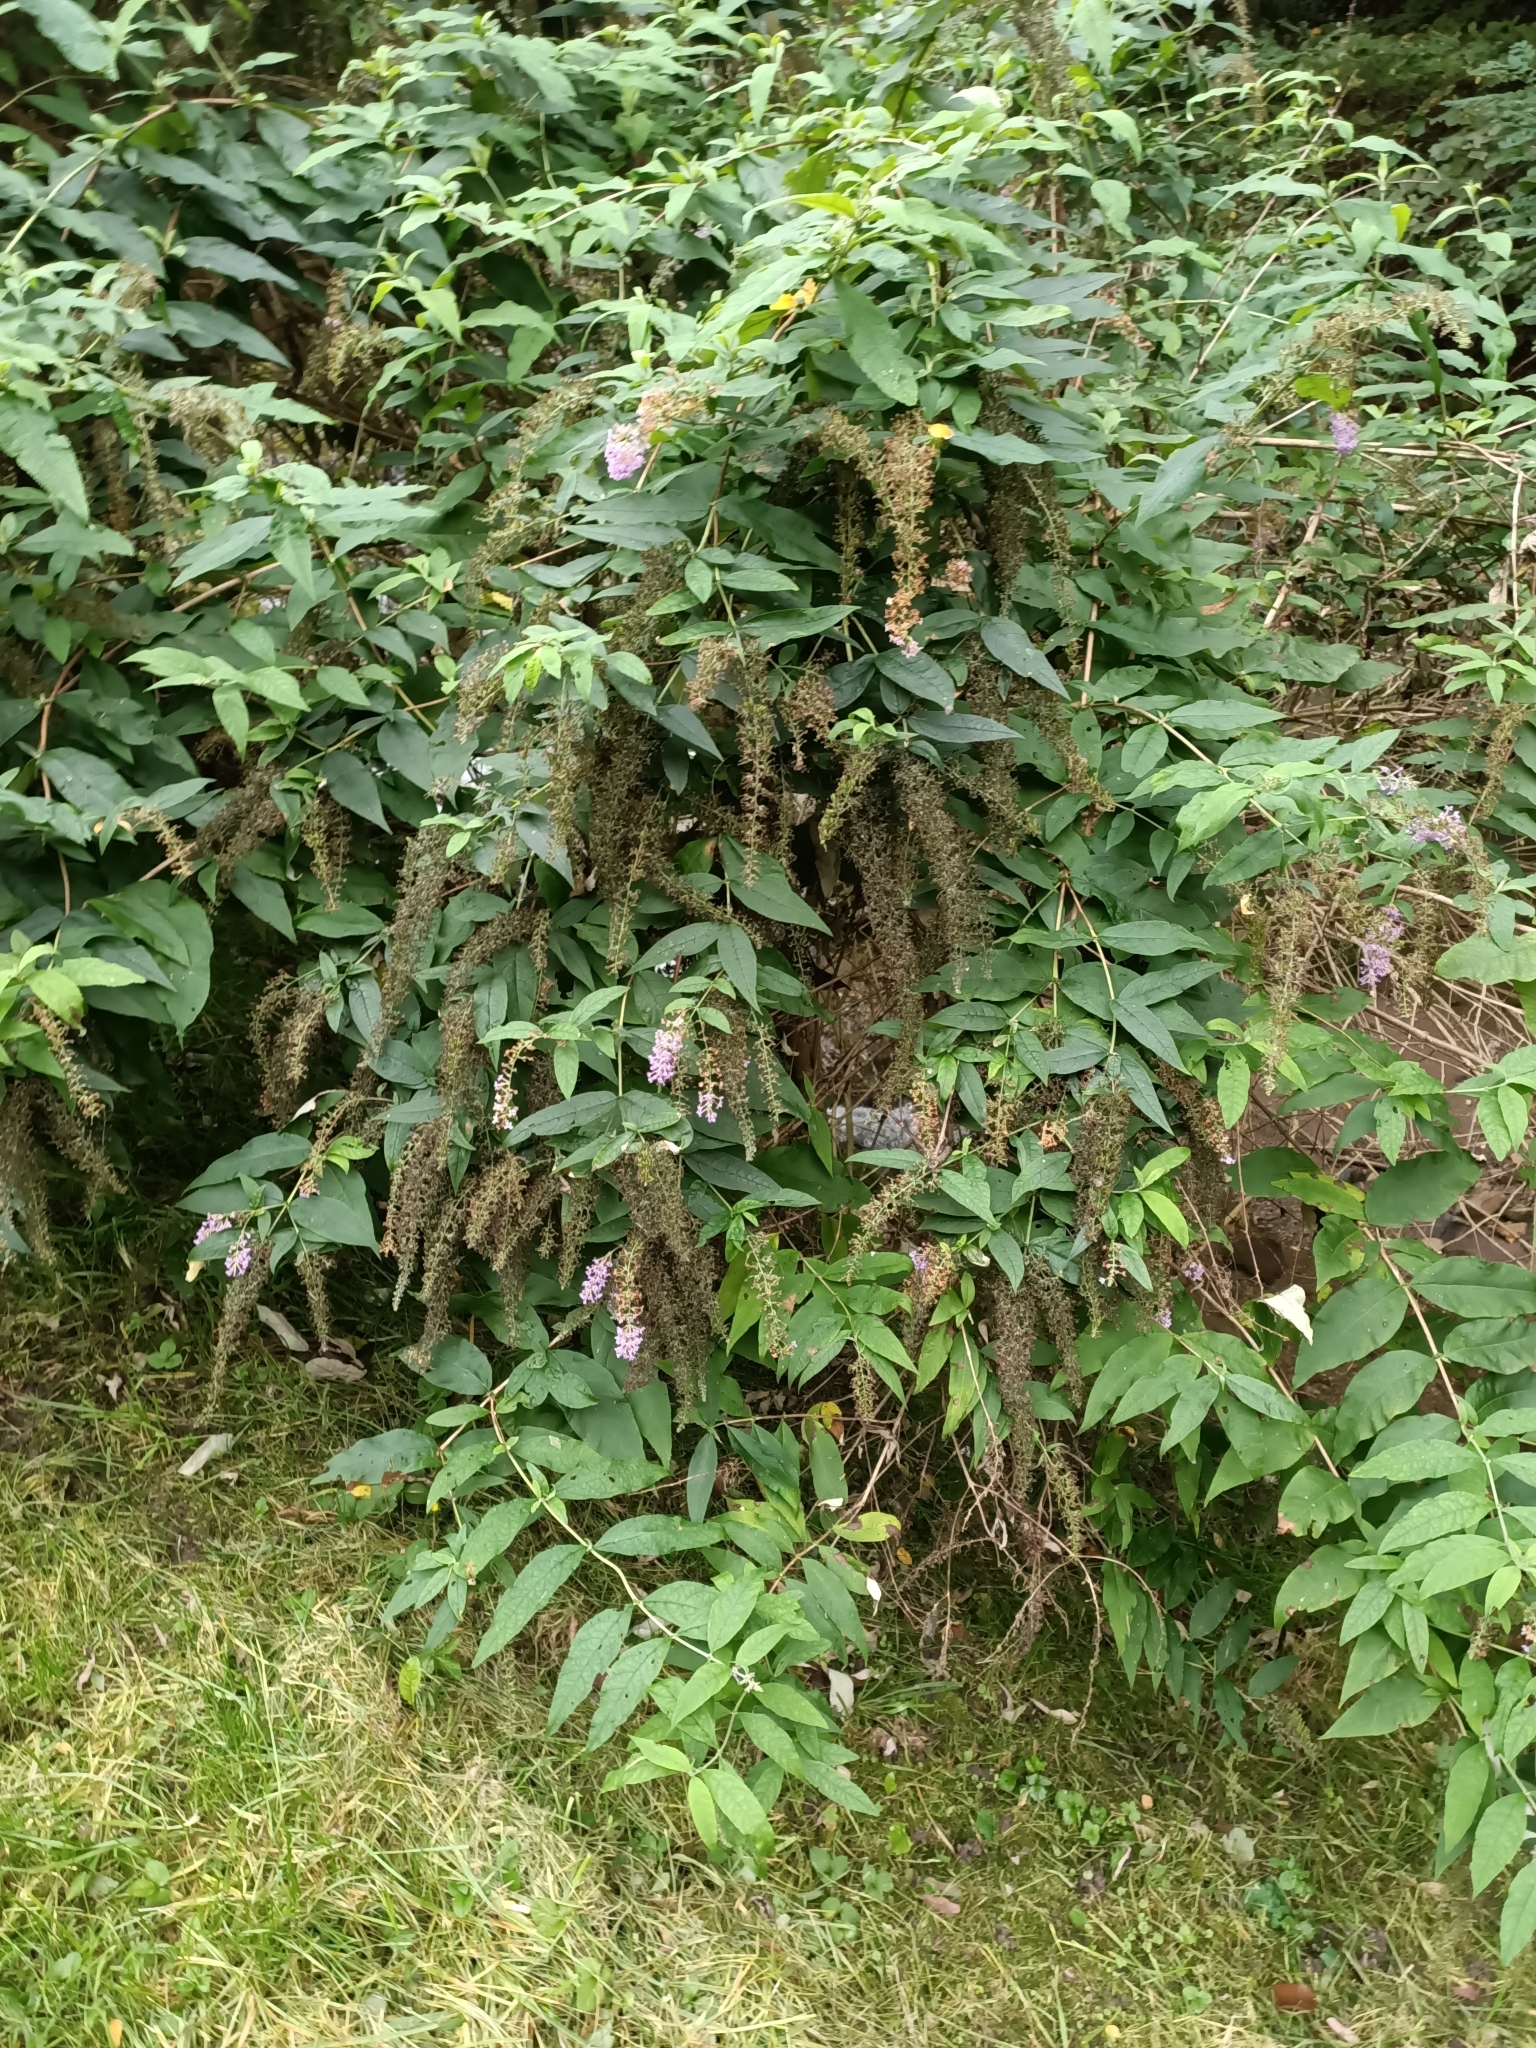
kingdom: Plantae
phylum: Tracheophyta
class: Magnoliopsida
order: Lamiales
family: Scrophulariaceae
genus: Buddleja
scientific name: Buddleja davidii
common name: Butterfly-bush
